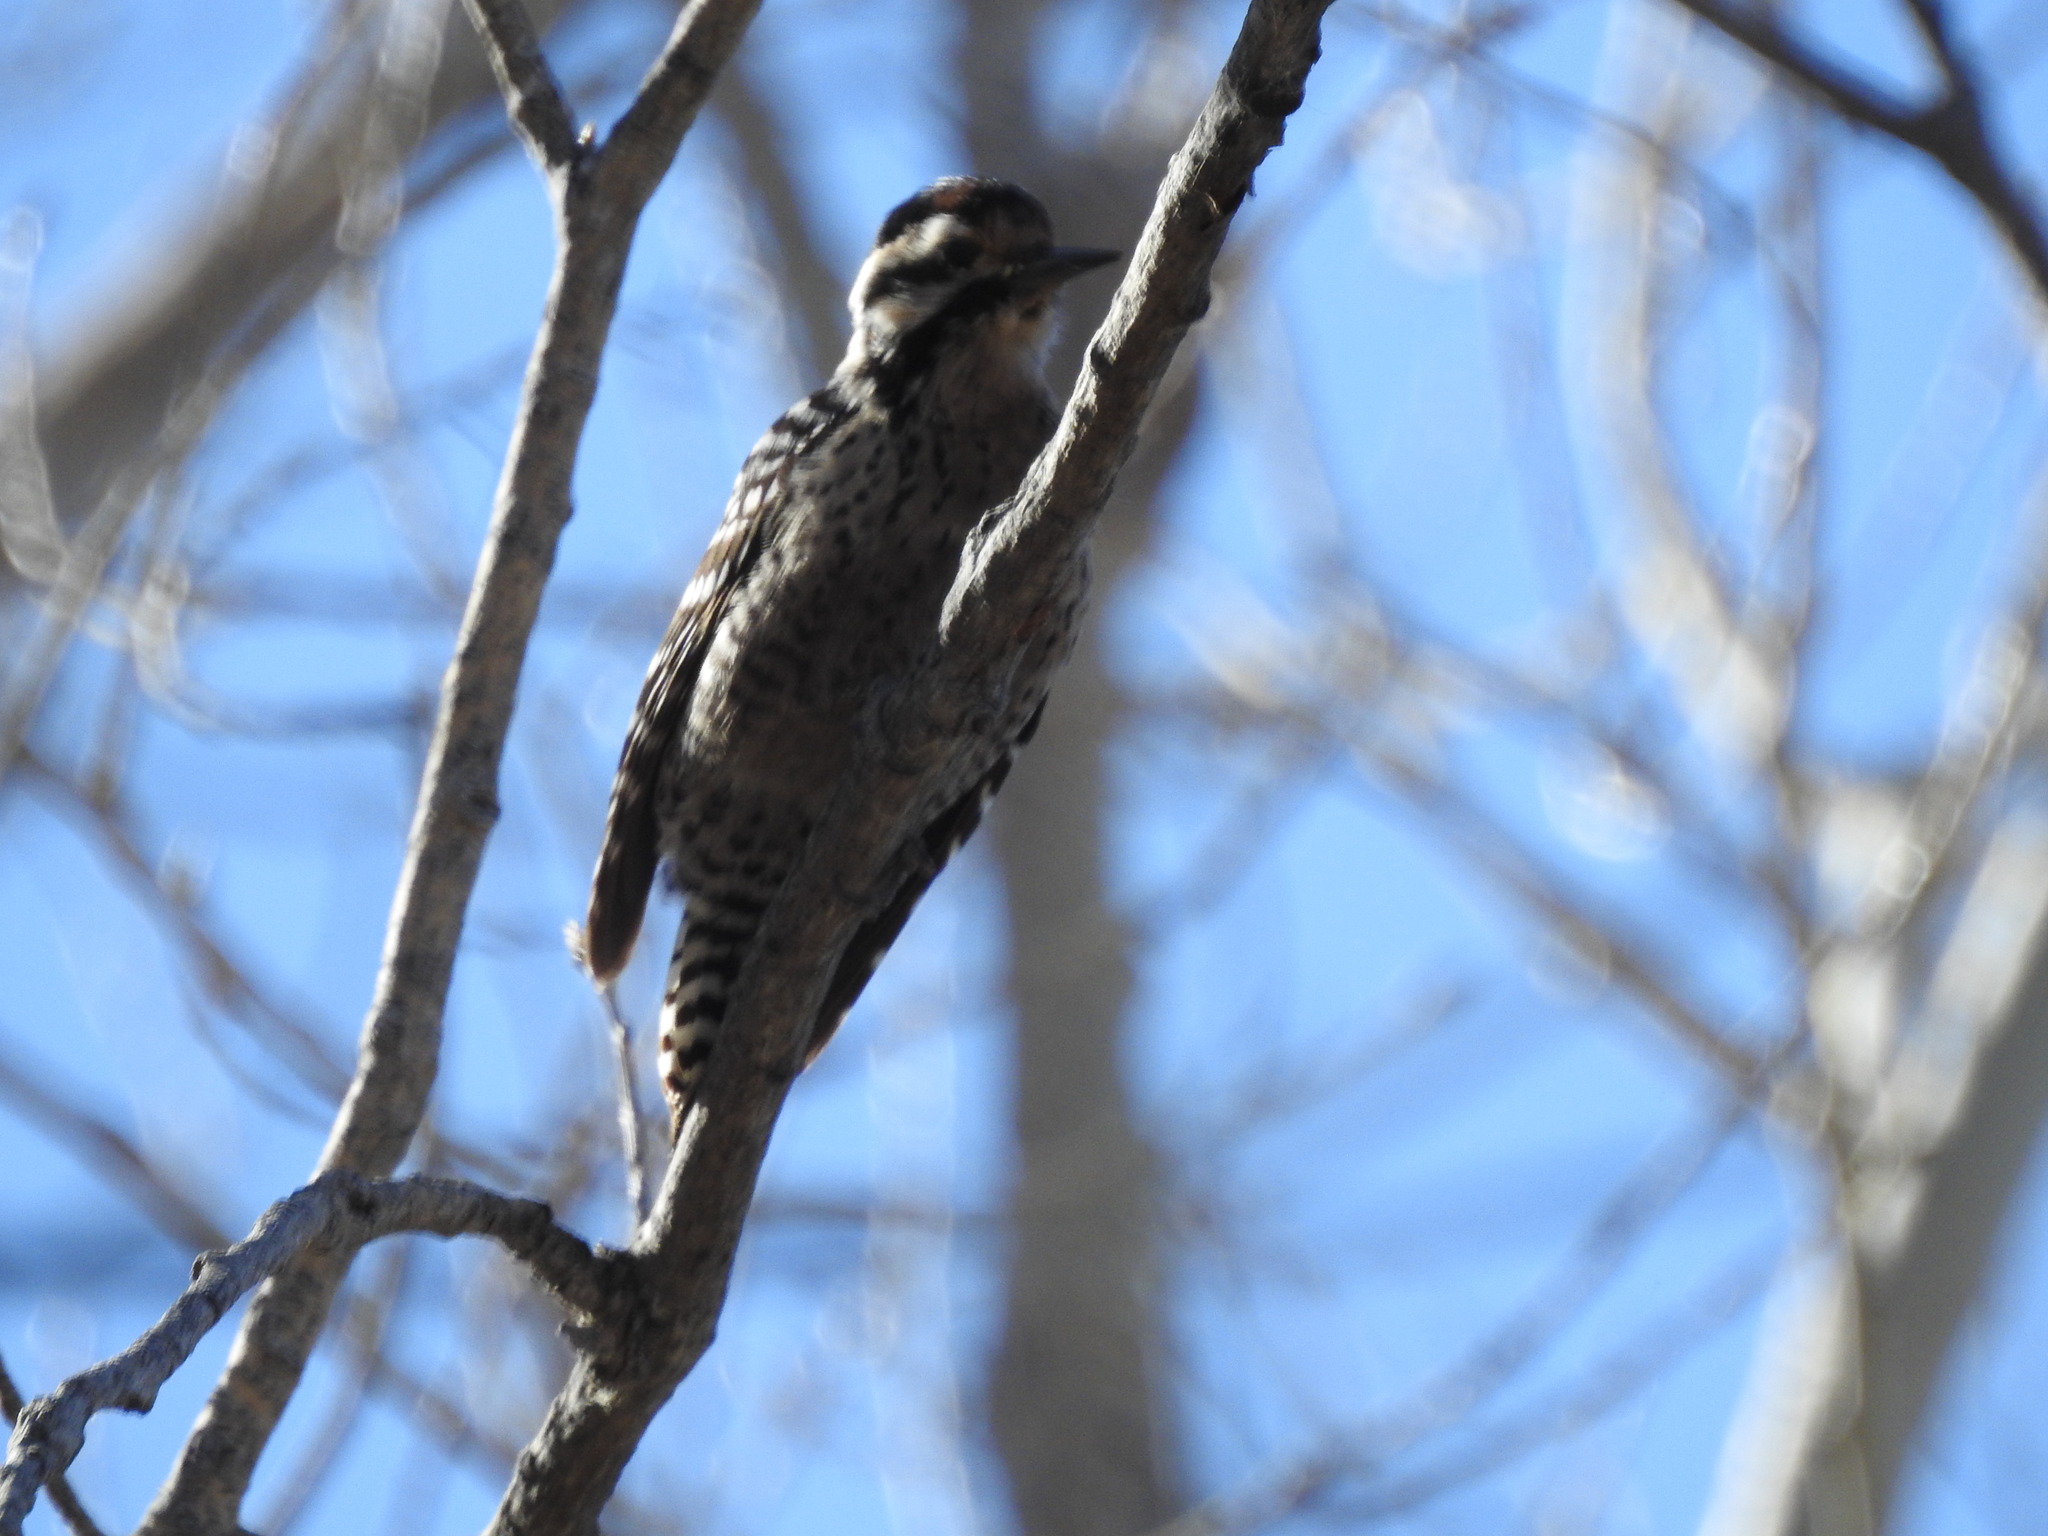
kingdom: Animalia
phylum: Chordata
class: Aves
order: Piciformes
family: Picidae
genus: Dryobates
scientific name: Dryobates scalaris
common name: Ladder-backed woodpecker
